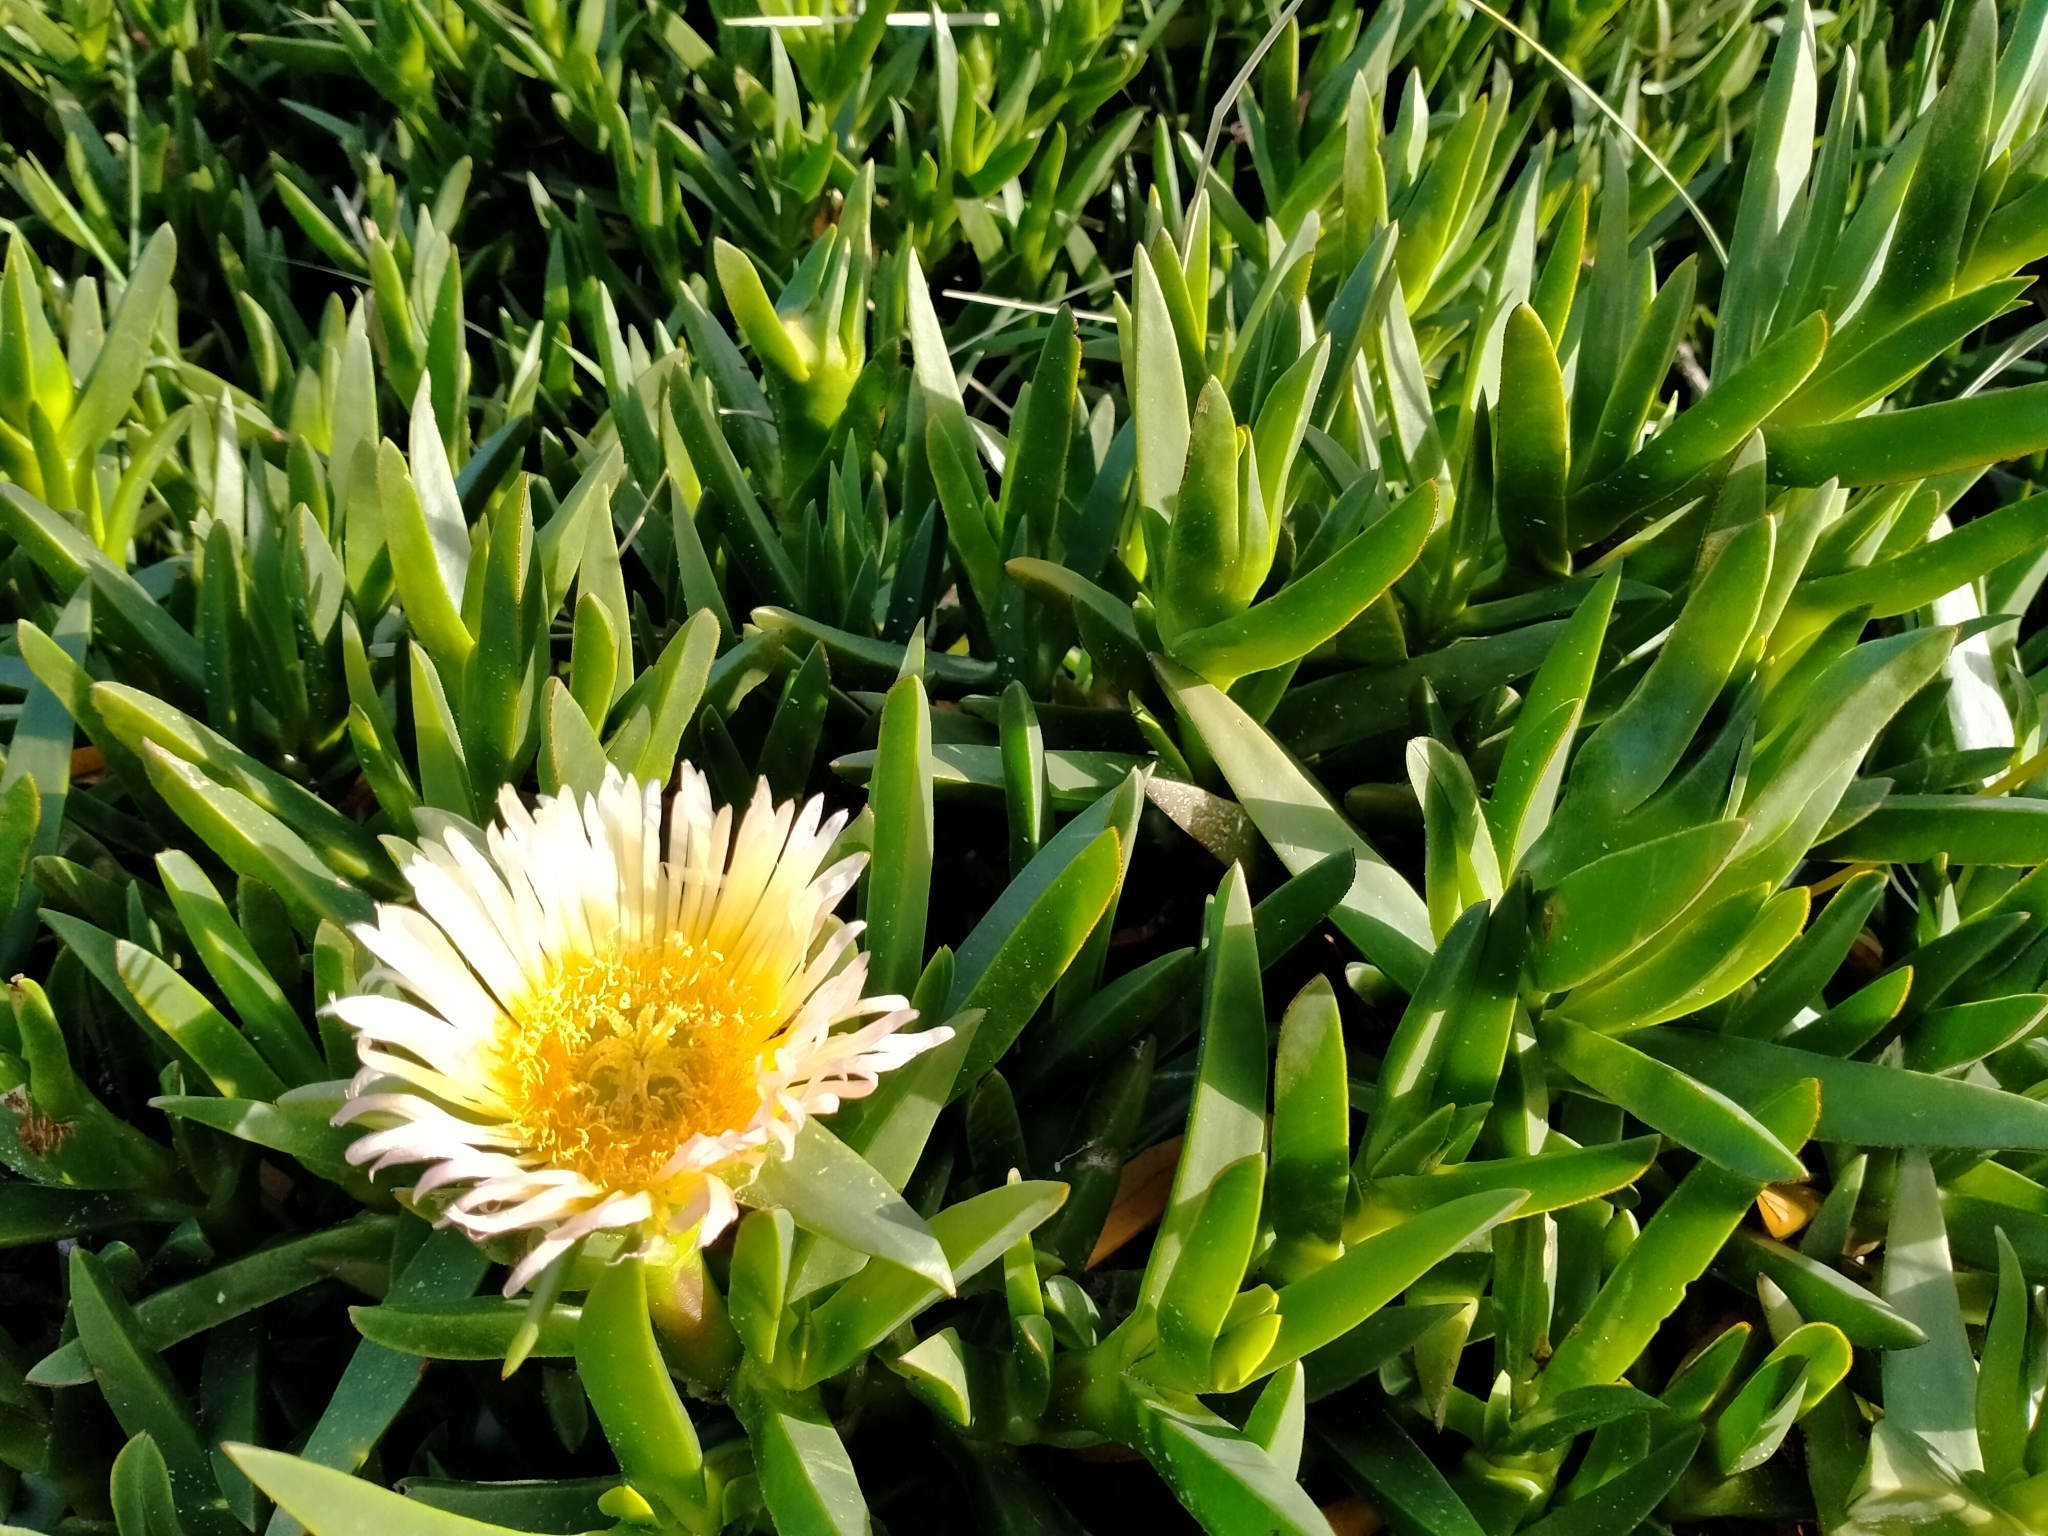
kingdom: Plantae
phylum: Tracheophyta
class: Magnoliopsida
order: Caryophyllales
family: Aizoaceae
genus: Carpobrotus
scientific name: Carpobrotus edulis
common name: Hottentot-fig
